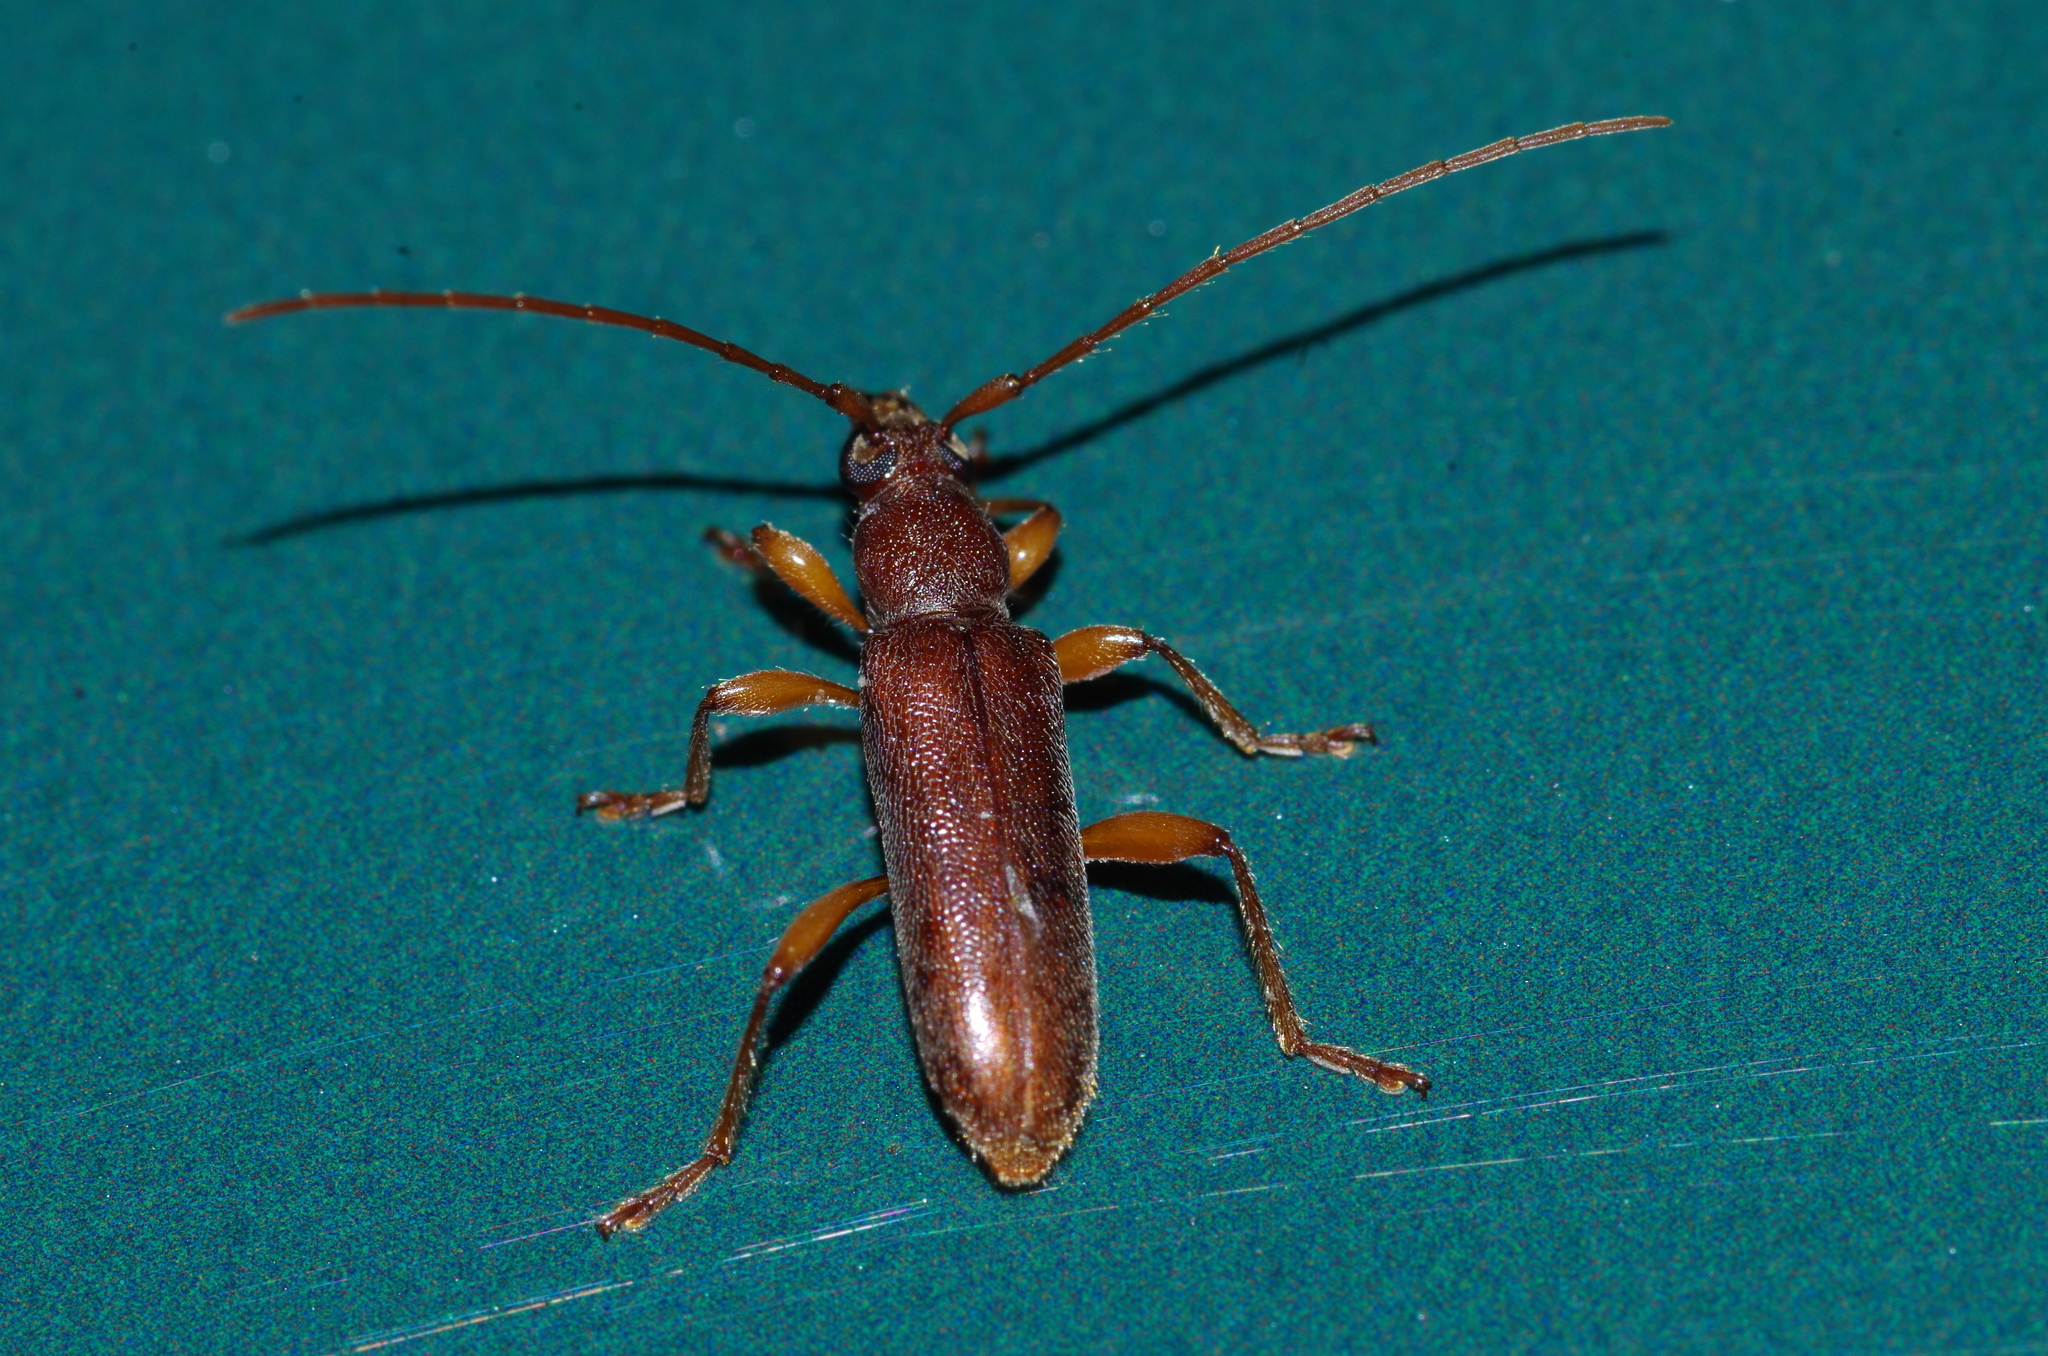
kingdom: Animalia
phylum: Arthropoda
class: Insecta
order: Coleoptera
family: Cerambycidae
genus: Ceresium
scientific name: Ceresium holophaeum
